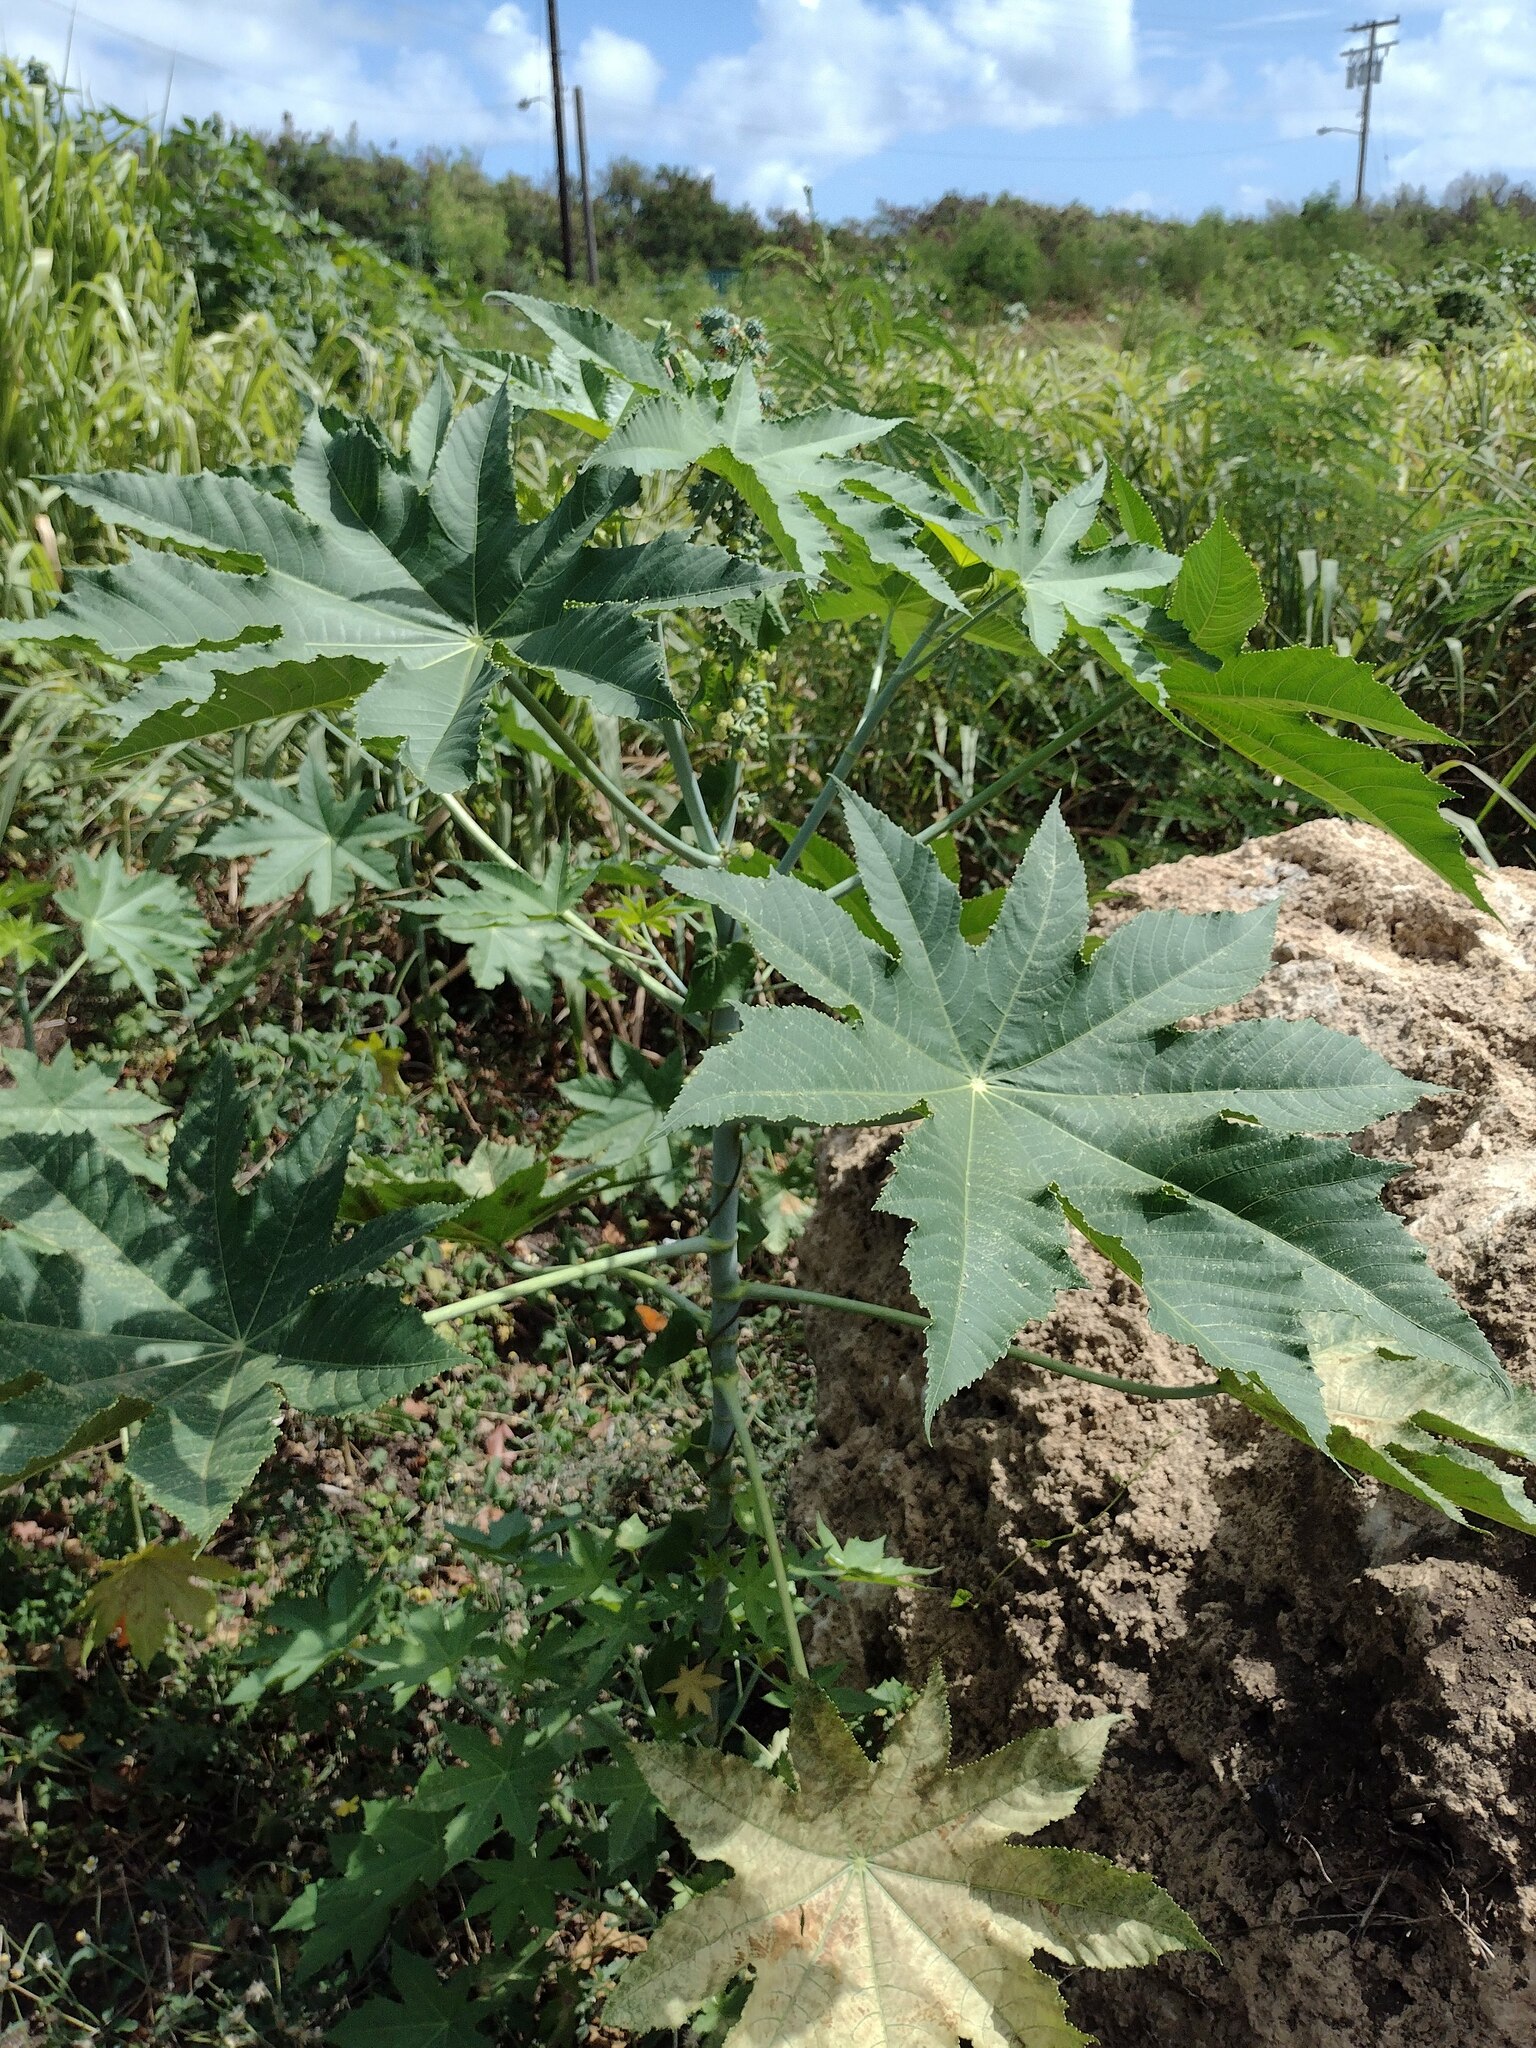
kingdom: Plantae
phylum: Tracheophyta
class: Magnoliopsida
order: Malpighiales
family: Euphorbiaceae
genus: Ricinus
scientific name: Ricinus communis
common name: Castor-oil-plant
